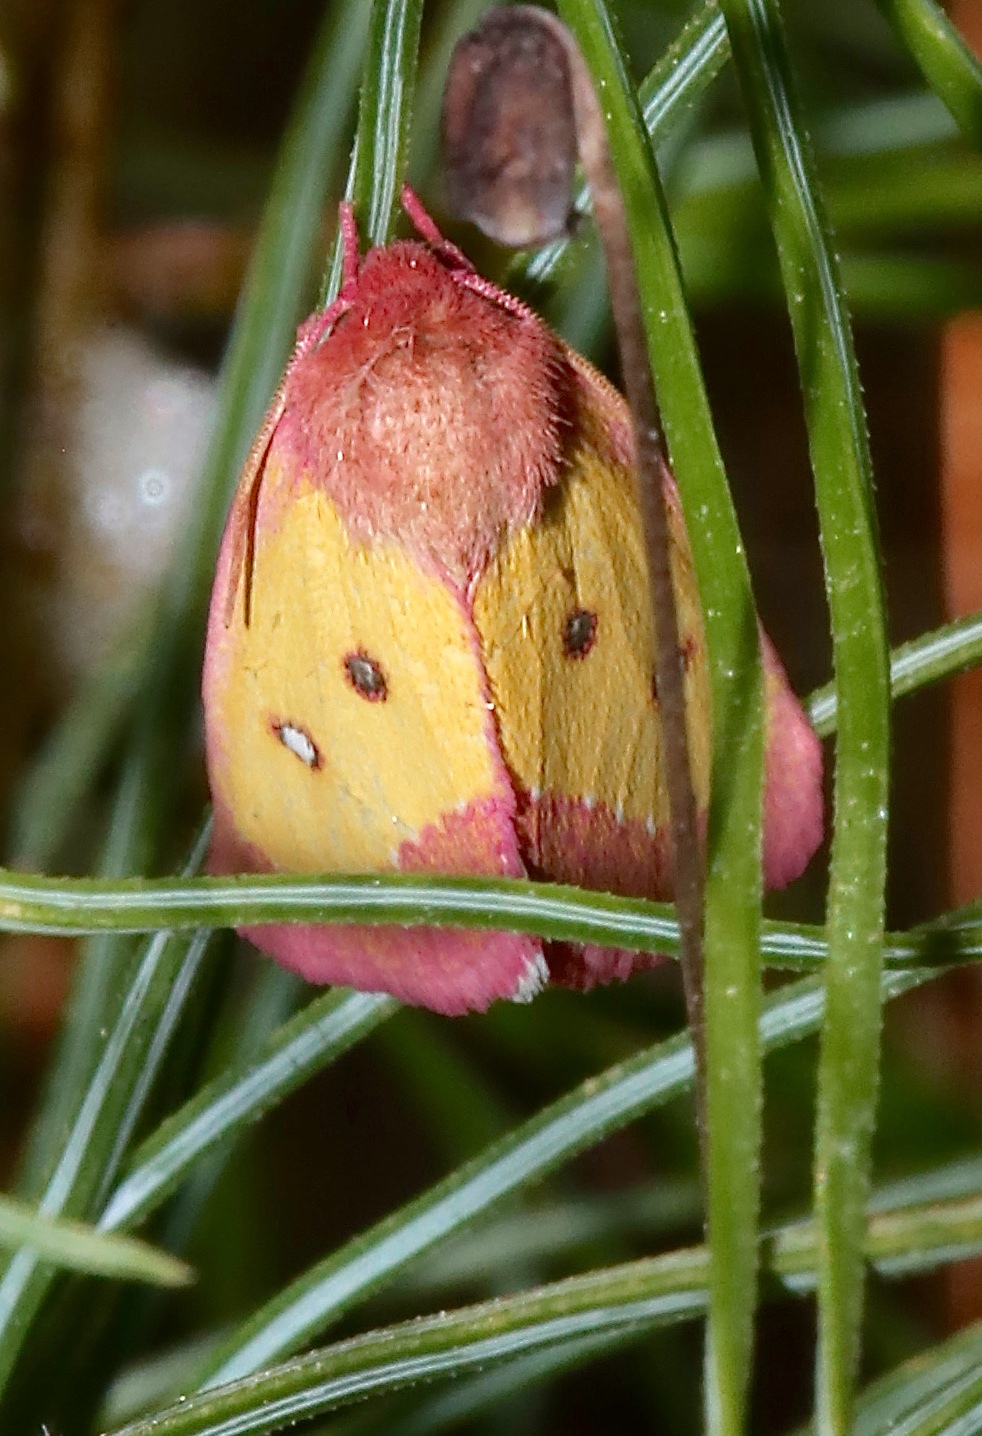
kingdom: Animalia
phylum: Arthropoda
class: Insecta
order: Lepidoptera
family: Noctuidae
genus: Derrima
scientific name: Derrima stellata
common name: Pink star moth
